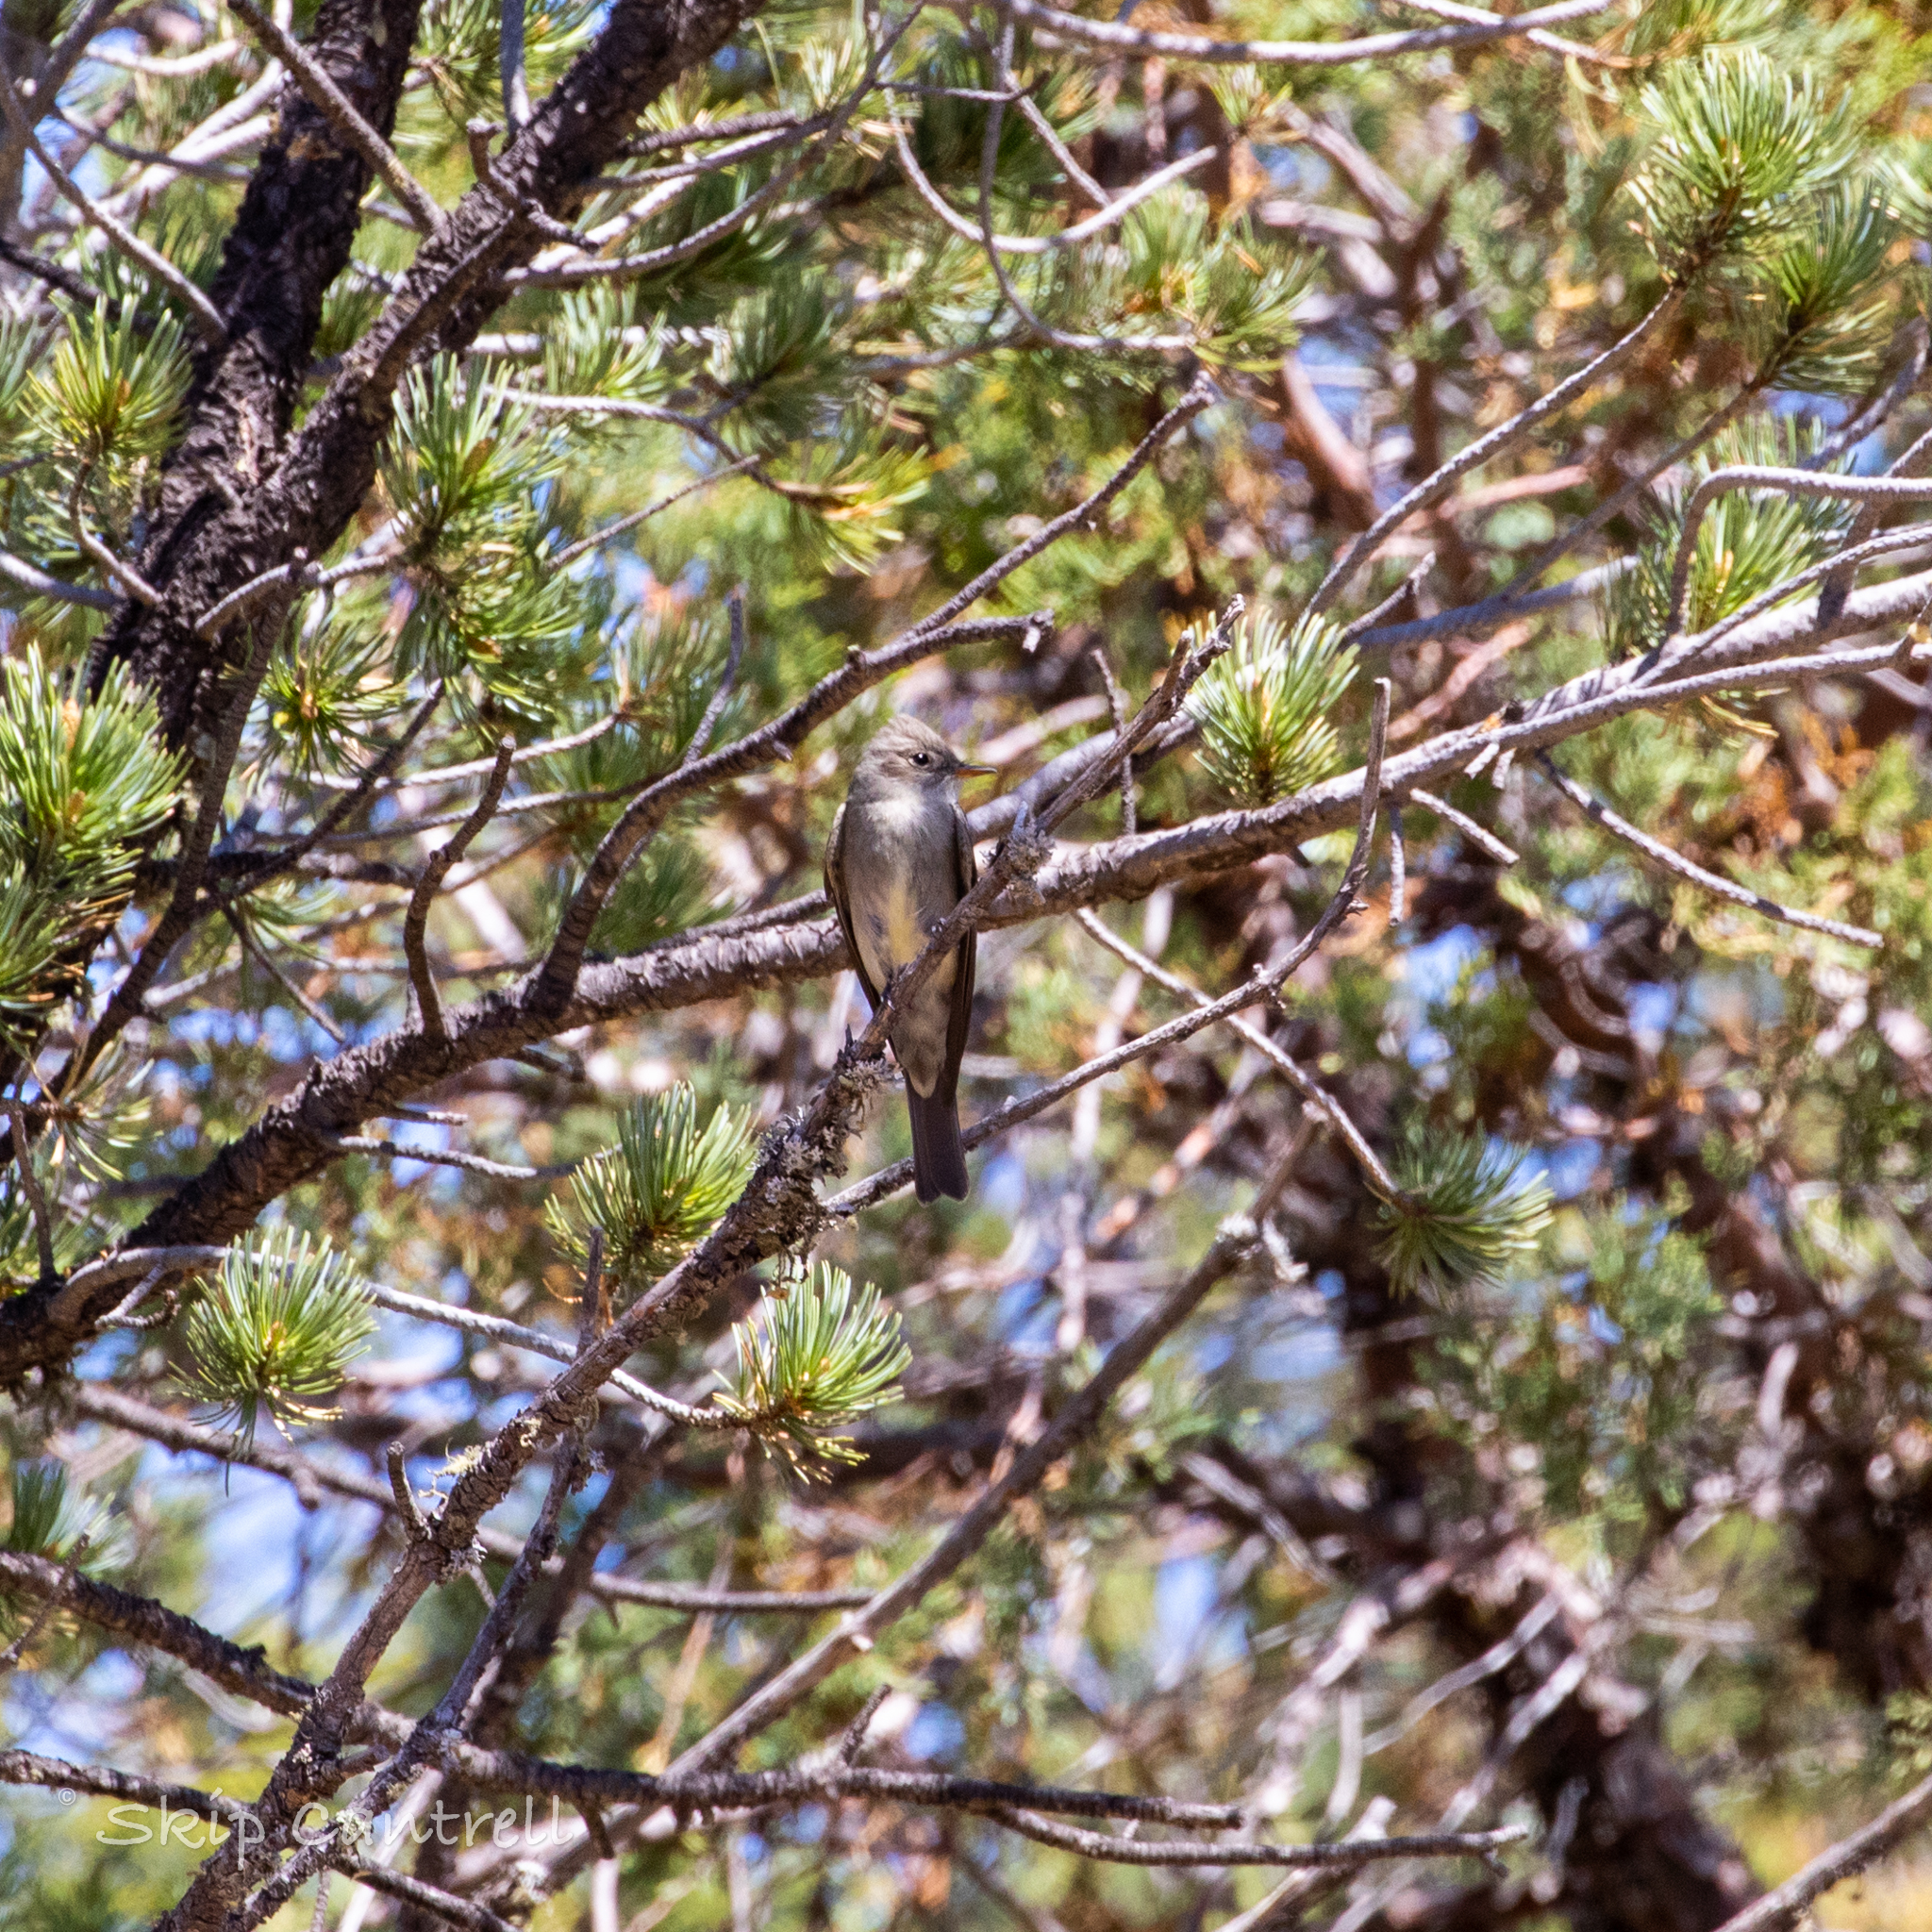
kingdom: Animalia
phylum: Chordata
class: Aves
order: Passeriformes
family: Tyrannidae
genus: Contopus
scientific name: Contopus sordidulus
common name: Western wood-pewee
